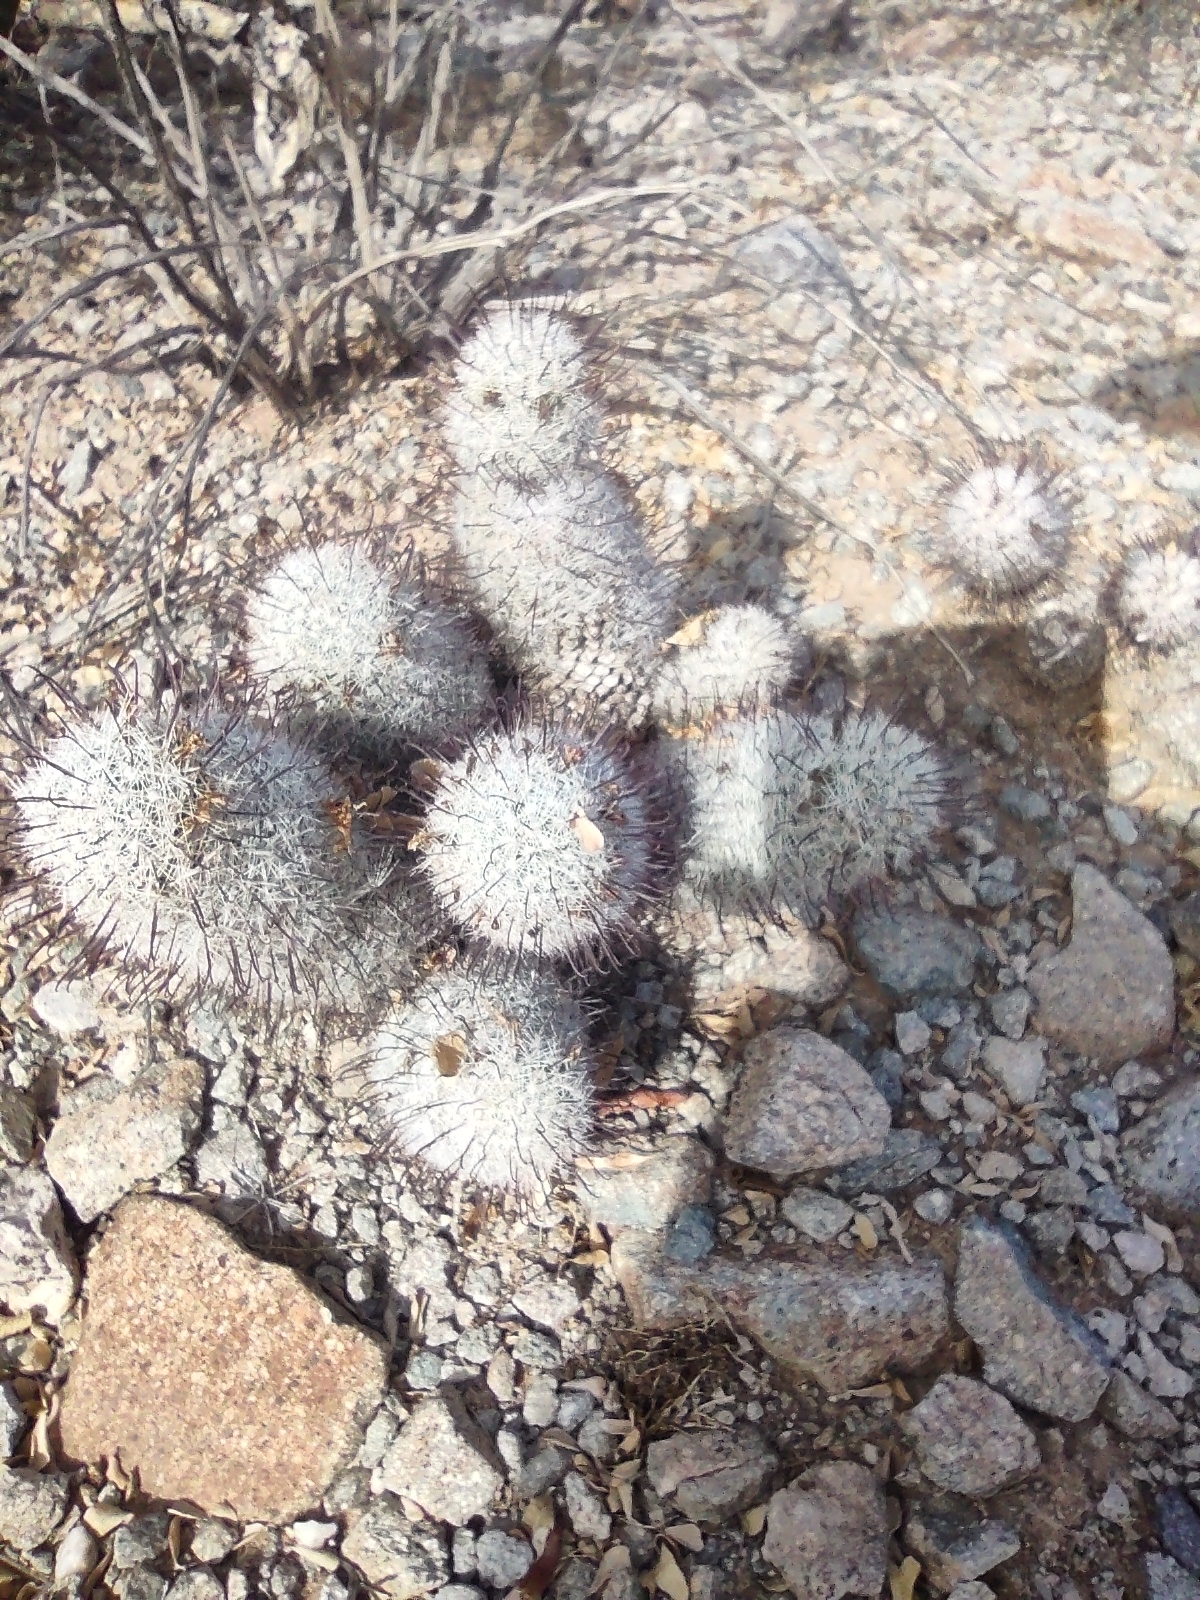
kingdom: Plantae
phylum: Tracheophyta
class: Magnoliopsida
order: Caryophyllales
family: Cactaceae
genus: Cochemiea
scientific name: Cochemiea grahamii
